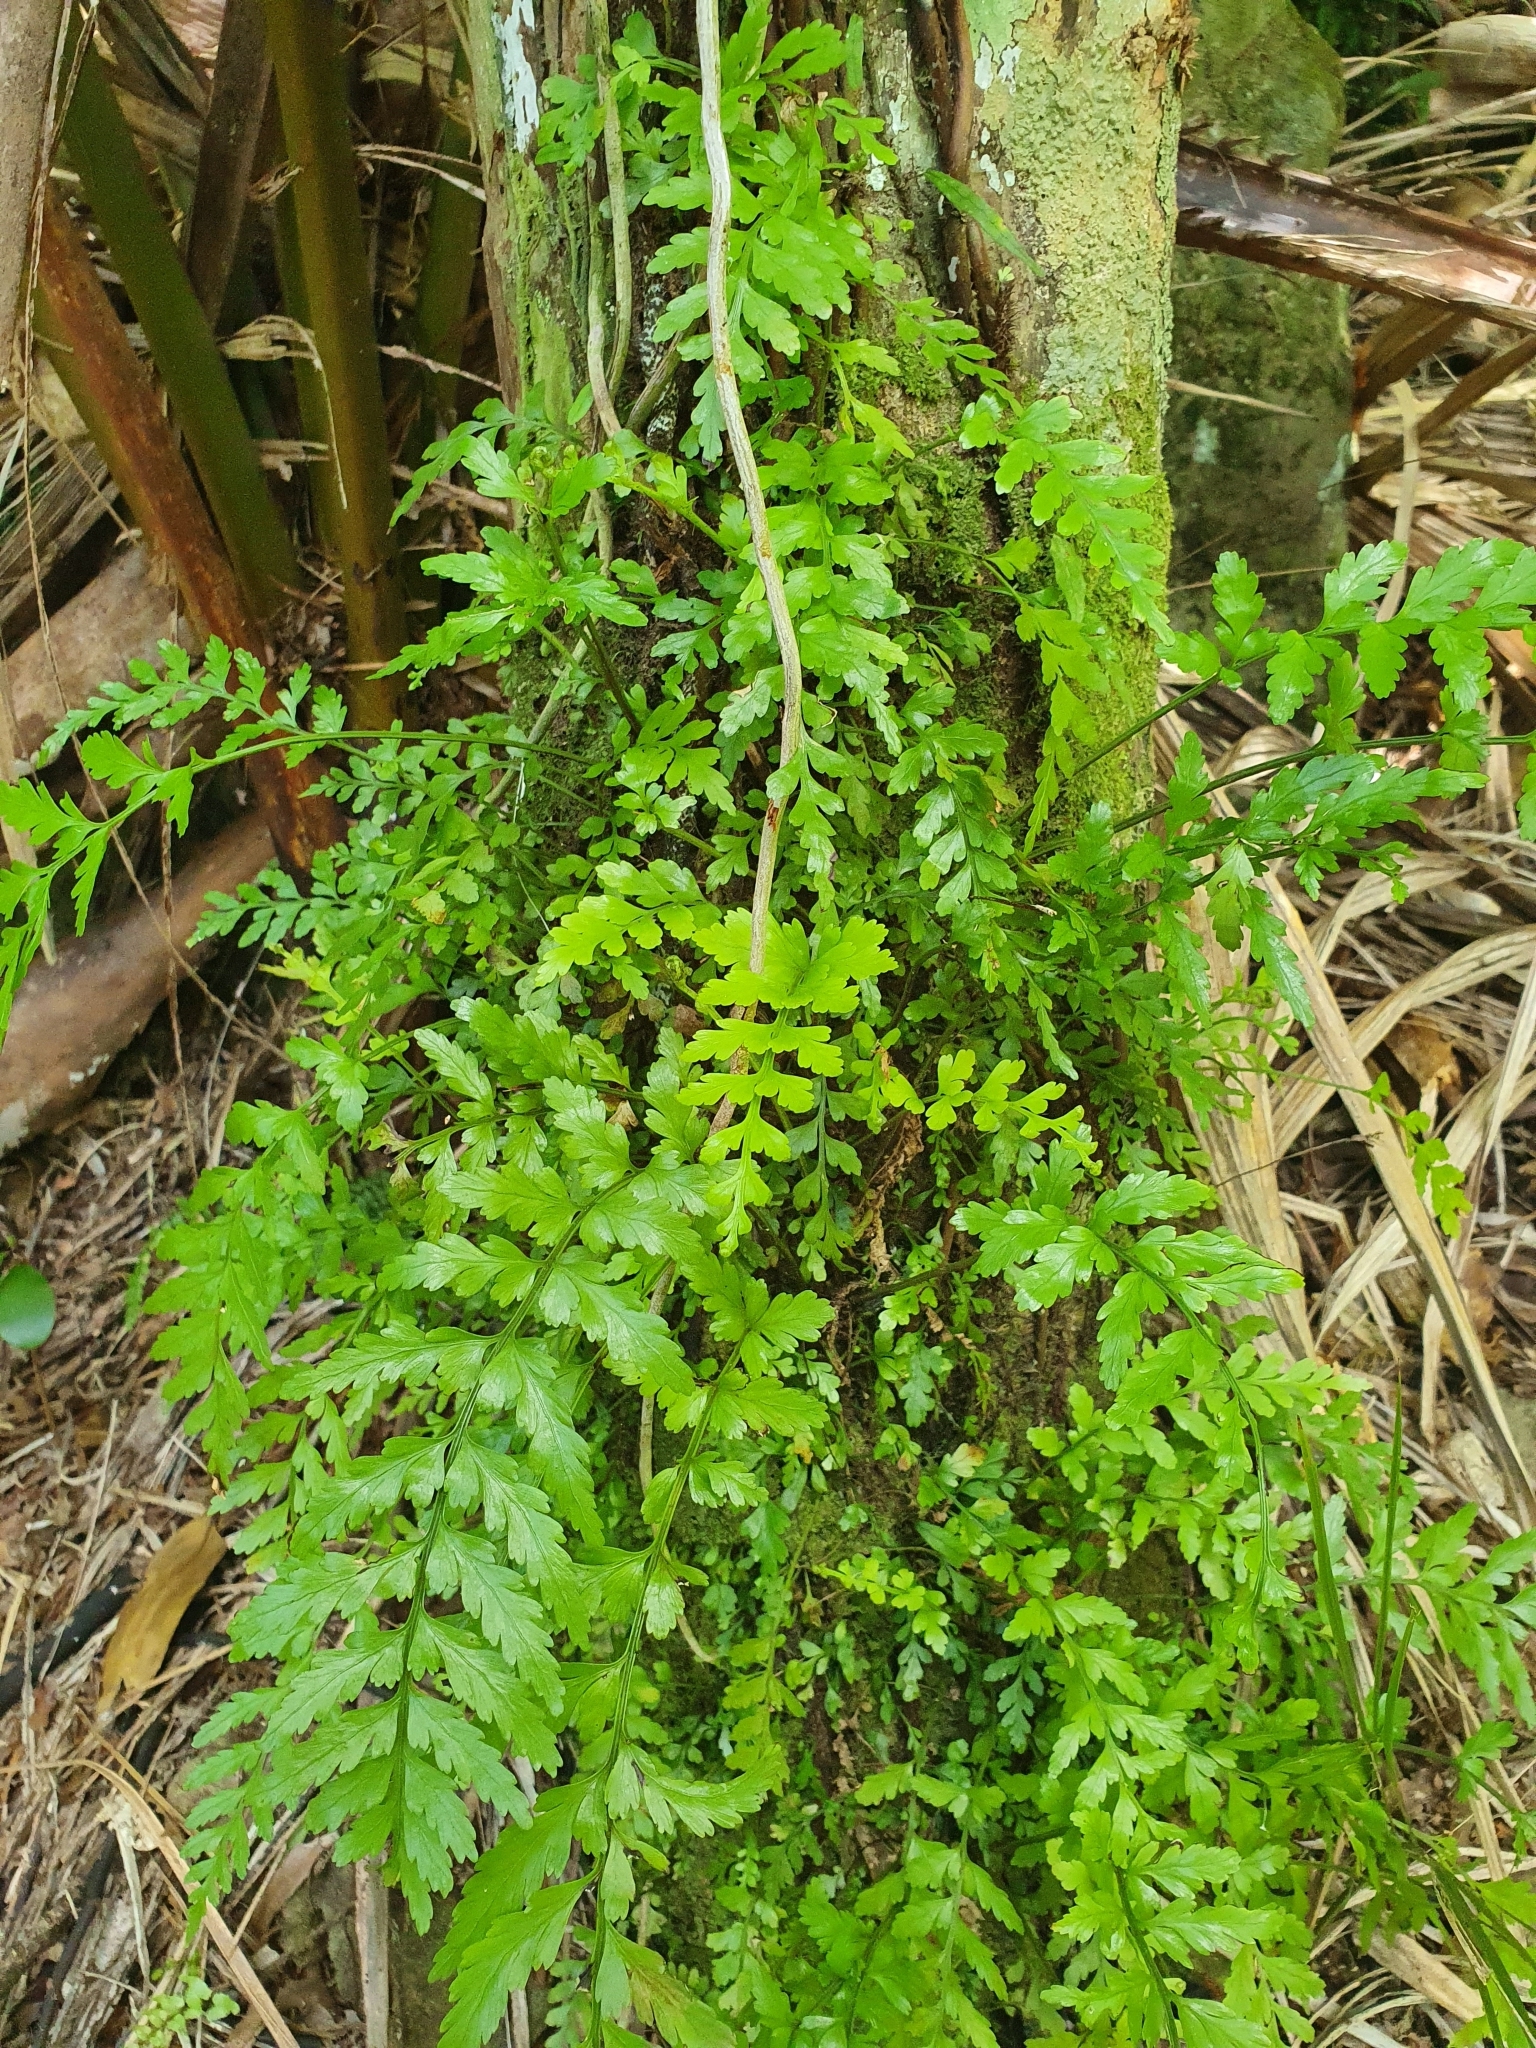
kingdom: Plantae
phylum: Tracheophyta
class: Polypodiopsida
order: Polypodiales
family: Aspleniaceae
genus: Asplenium
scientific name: Asplenium lamprophyllum
